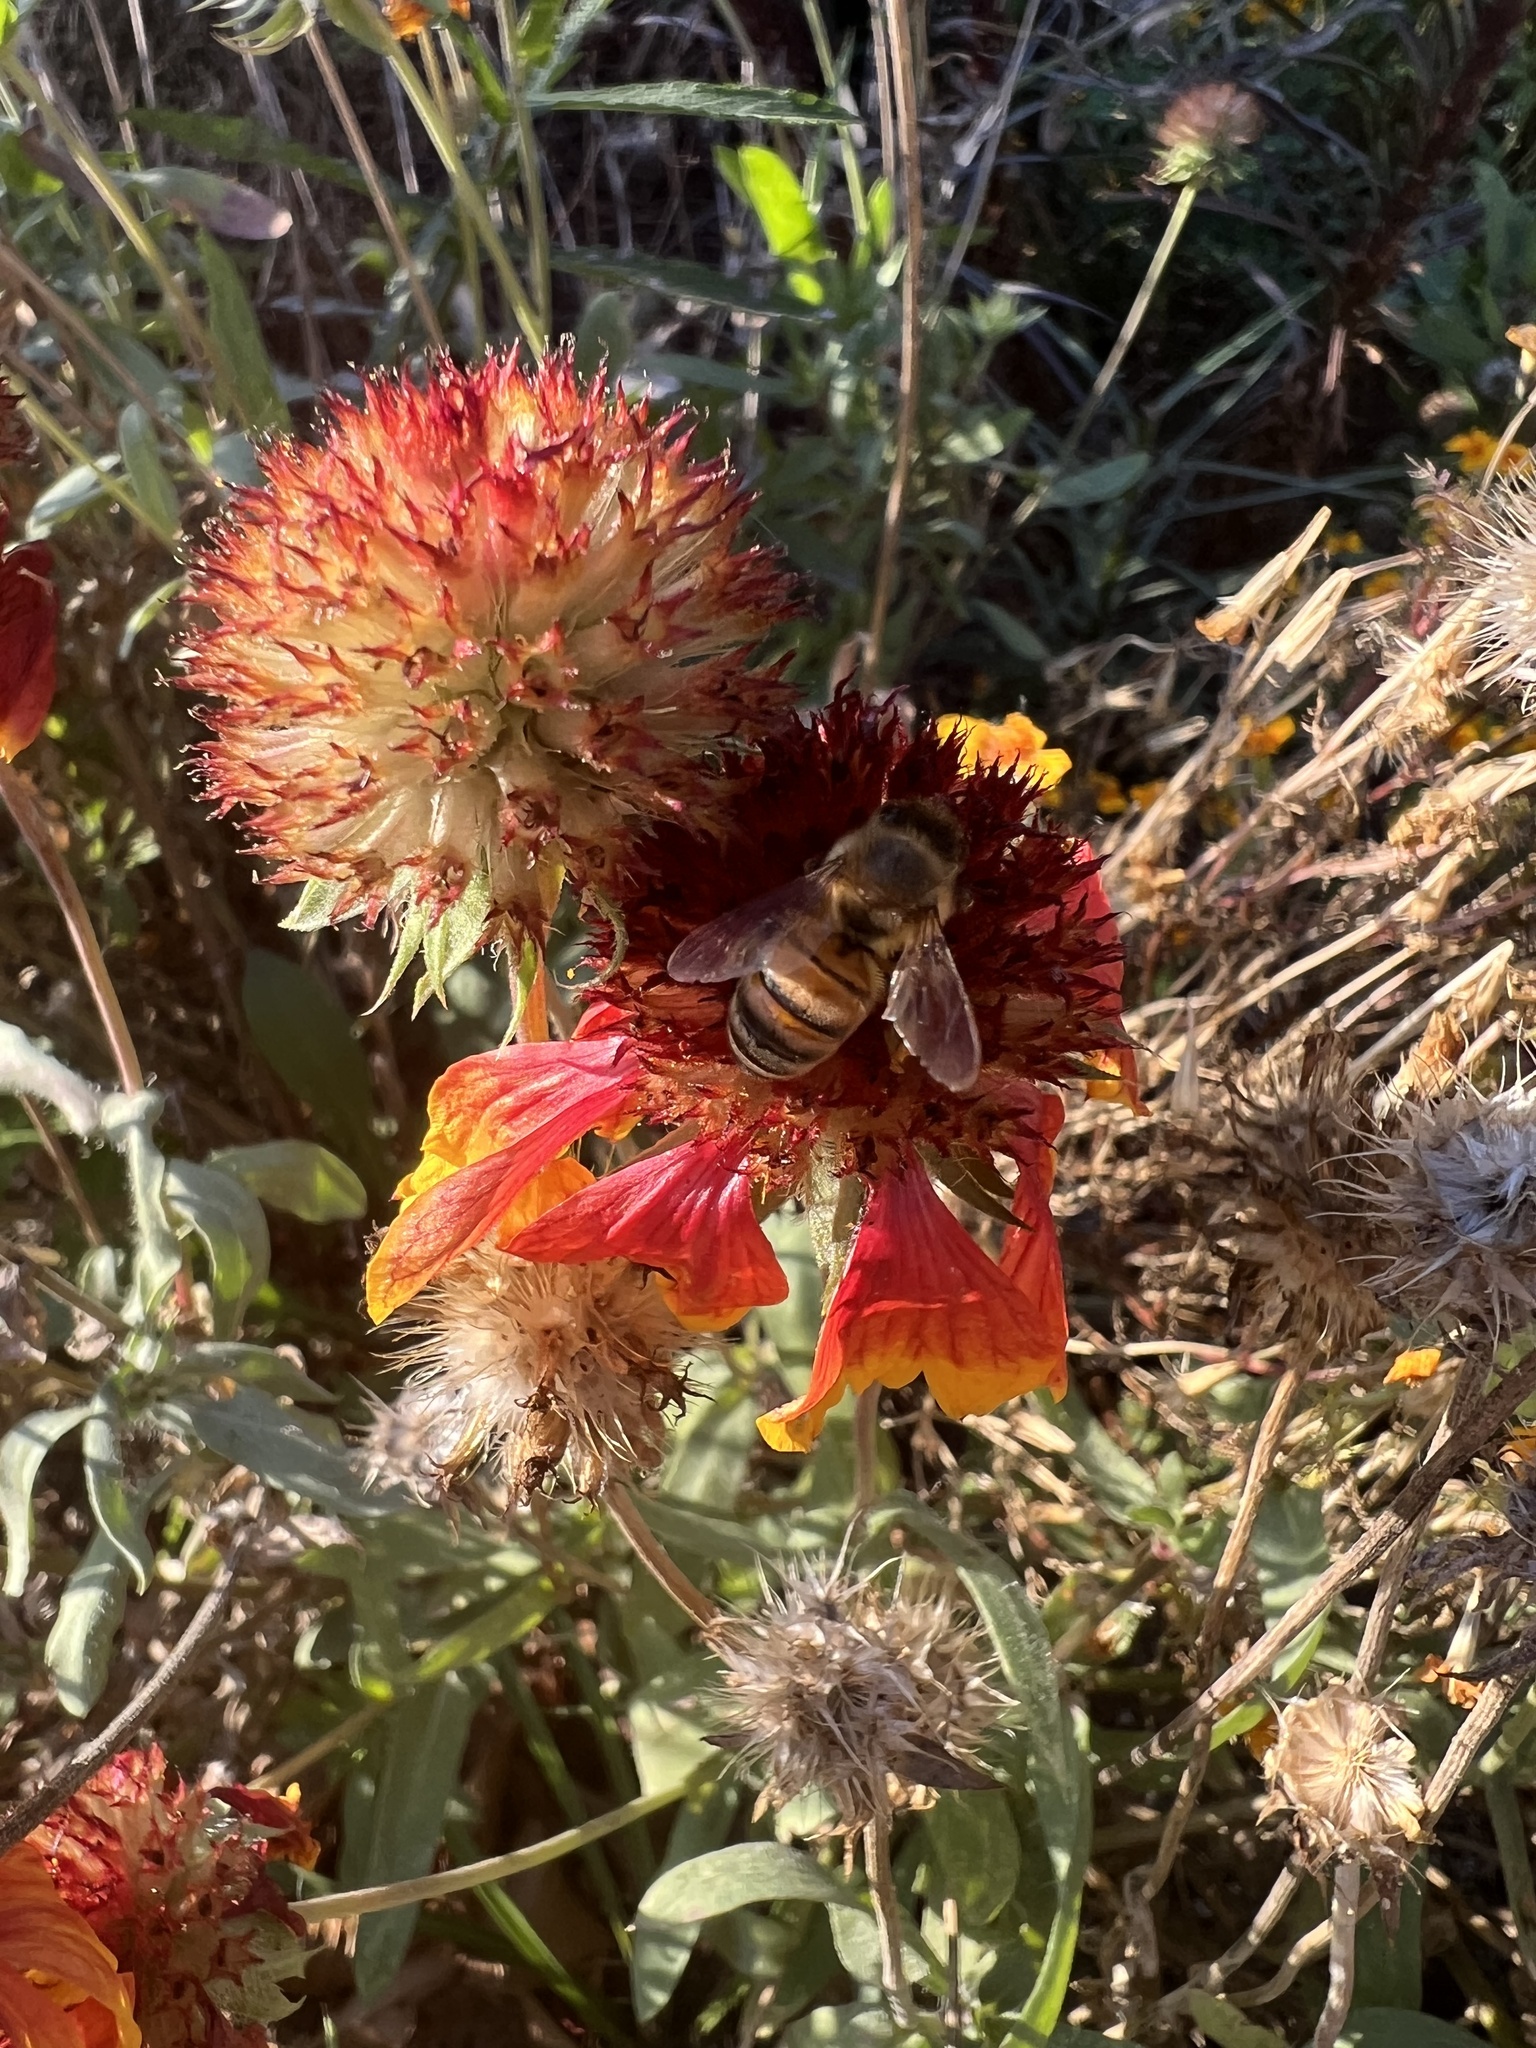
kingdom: Animalia
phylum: Arthropoda
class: Insecta
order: Hymenoptera
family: Apidae
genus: Apis
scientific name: Apis mellifera
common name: Honey bee
